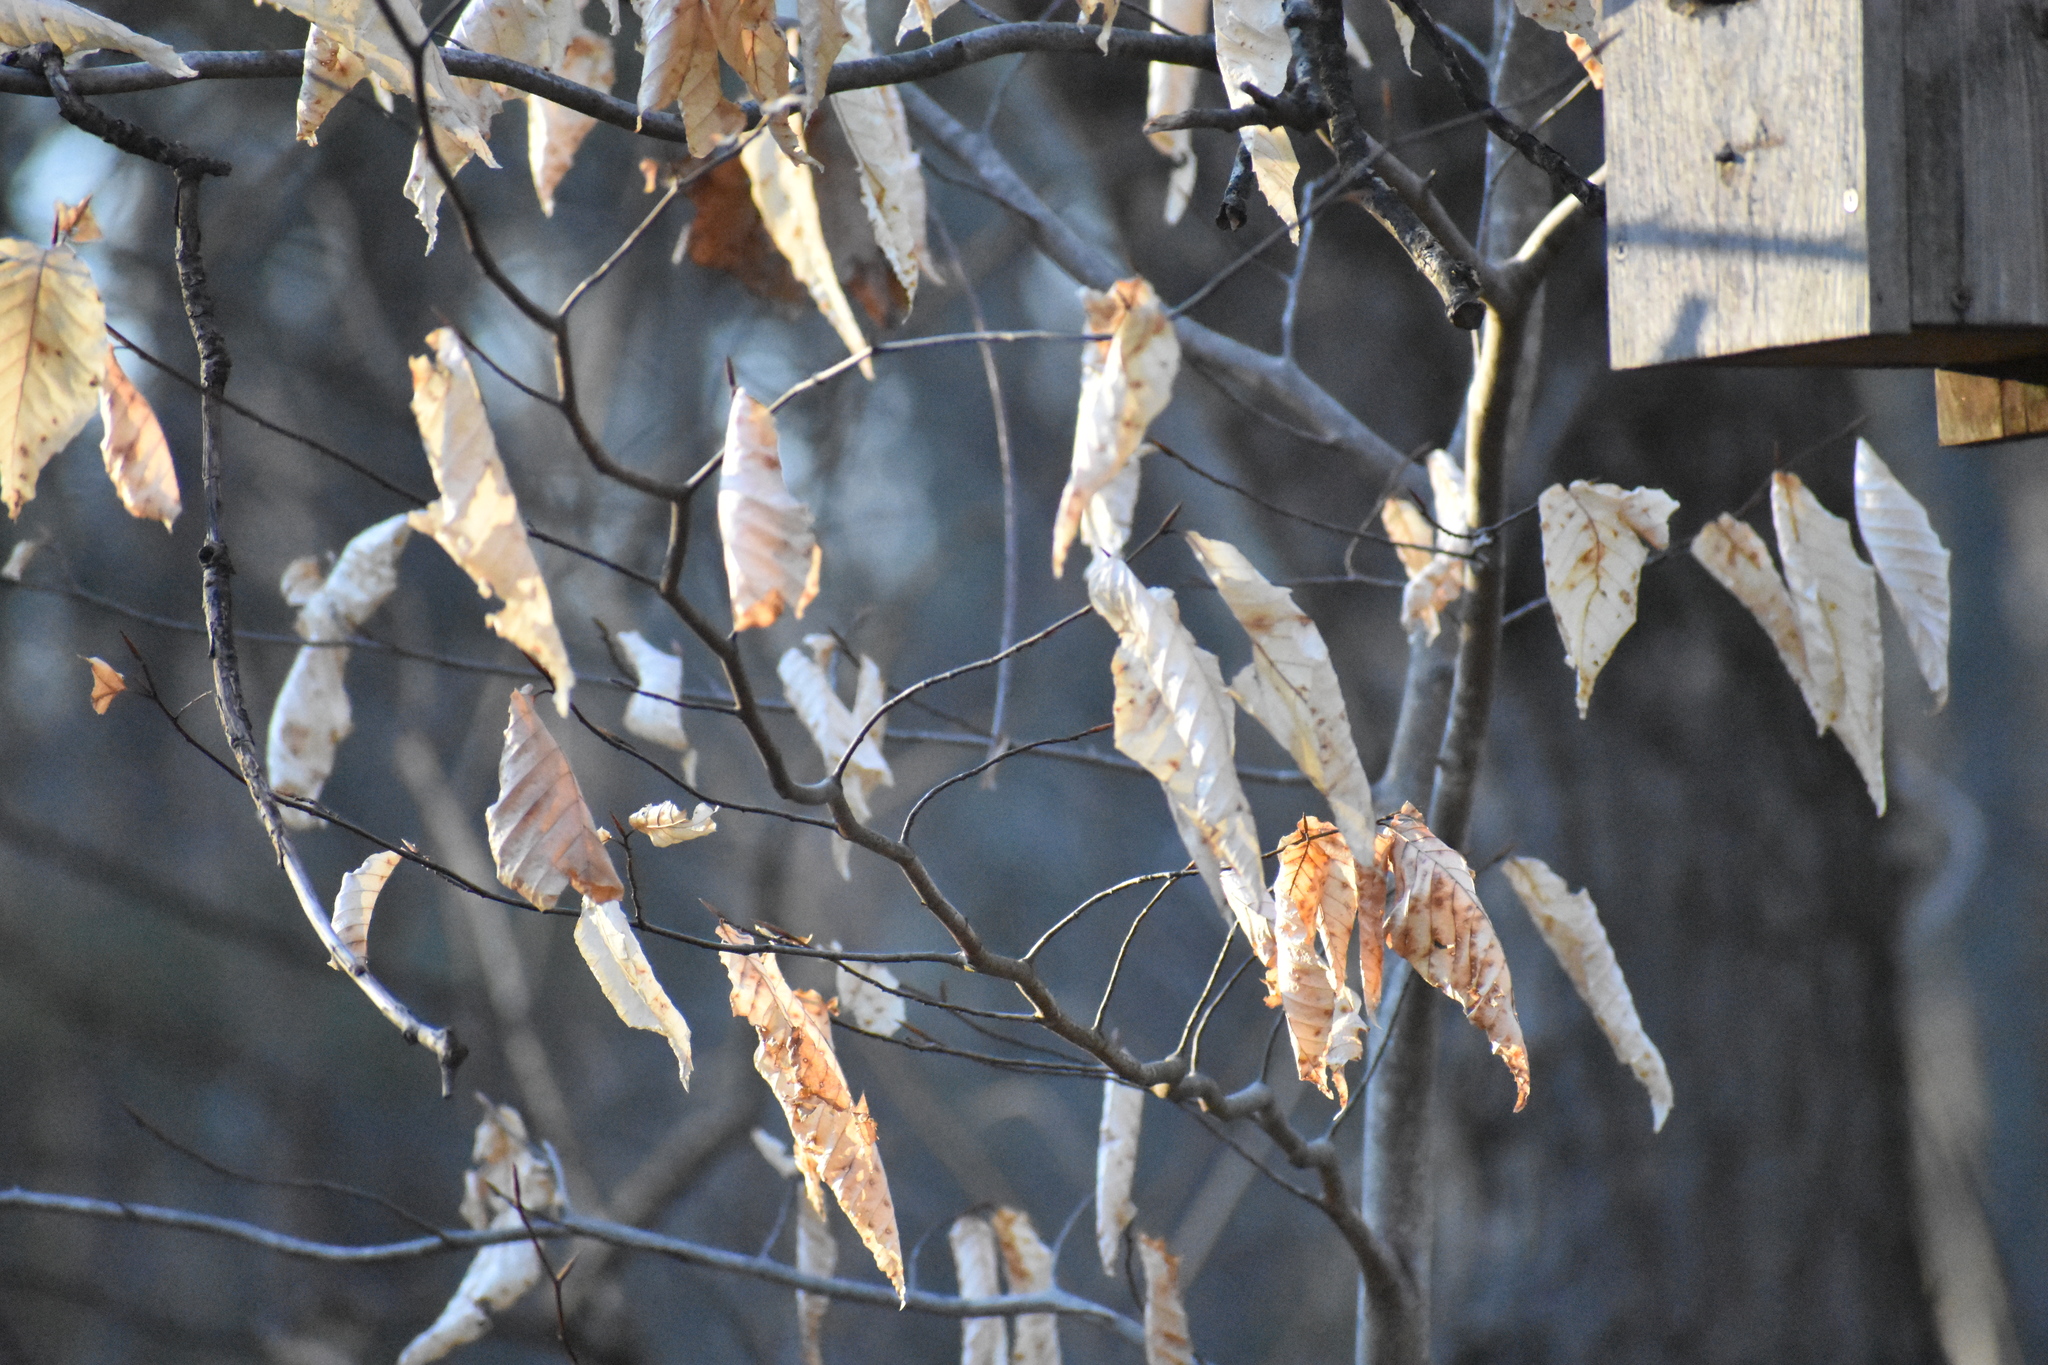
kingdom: Plantae
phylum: Tracheophyta
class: Magnoliopsida
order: Fagales
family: Fagaceae
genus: Fagus
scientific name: Fagus grandifolia
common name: American beech
